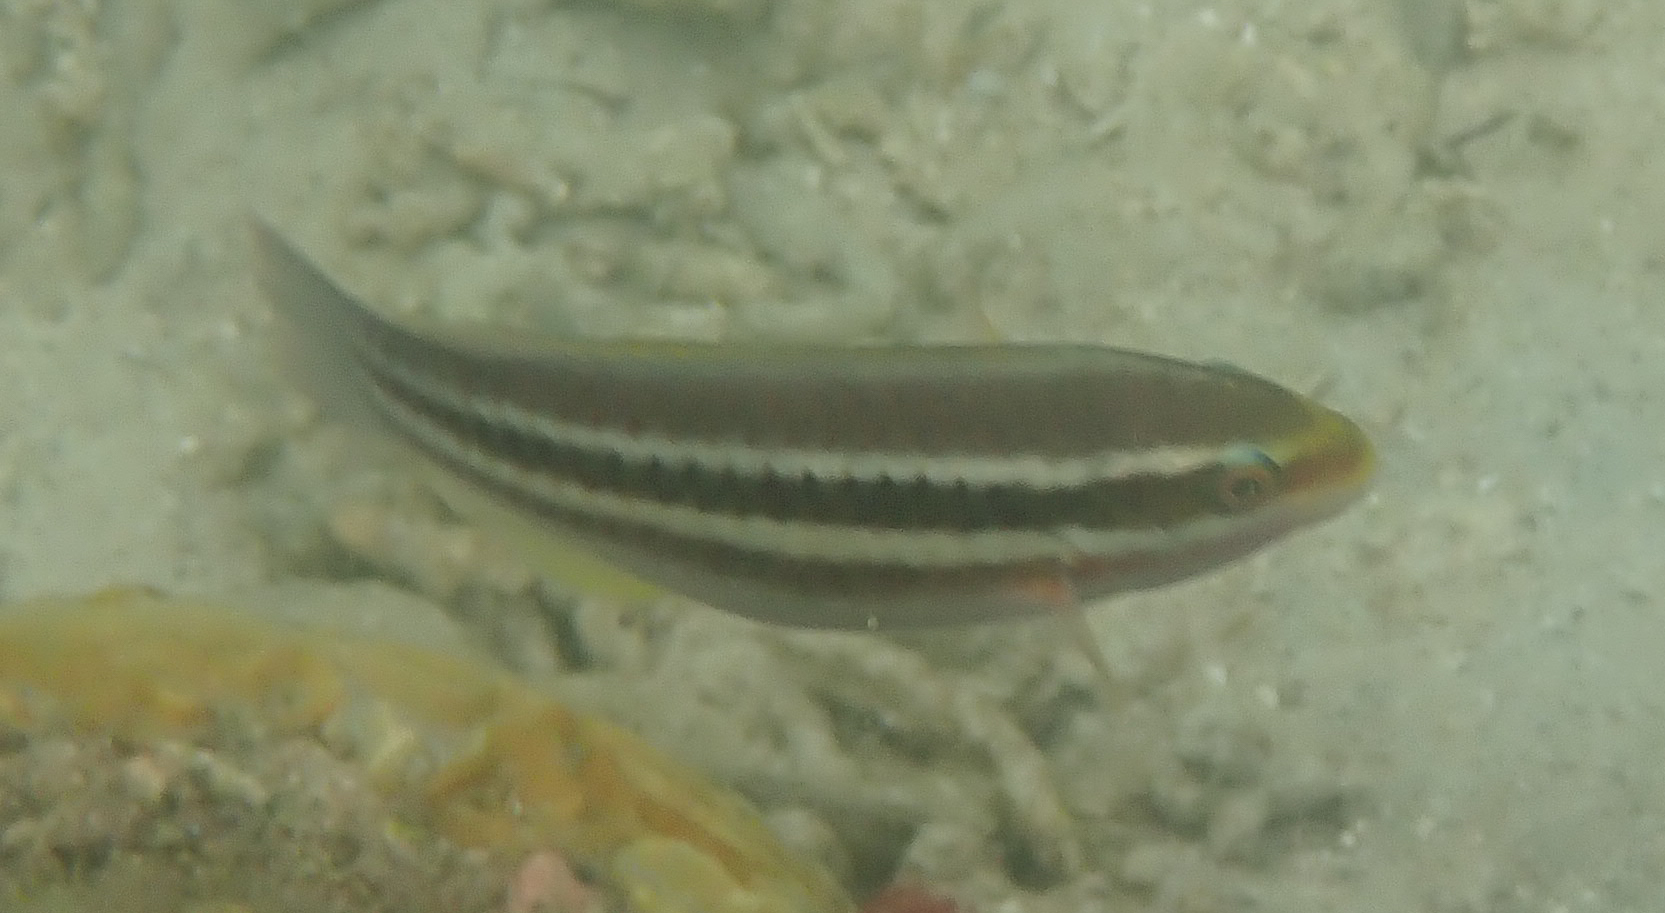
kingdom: Animalia
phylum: Chordata
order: Perciformes
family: Scaridae
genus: Scarus
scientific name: Scarus iseri
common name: Striped parrotfish
